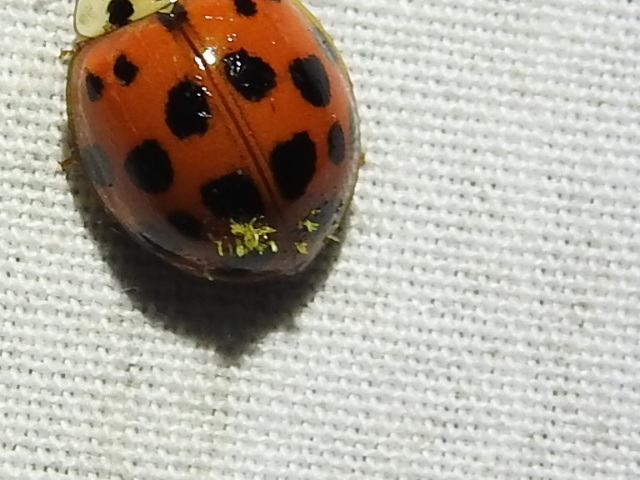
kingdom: Fungi
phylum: Ascomycota
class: Laboulbeniomycetes
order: Laboulbeniales
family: Laboulbeniaceae
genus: Hesperomyces
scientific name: Hesperomyces harmoniae
